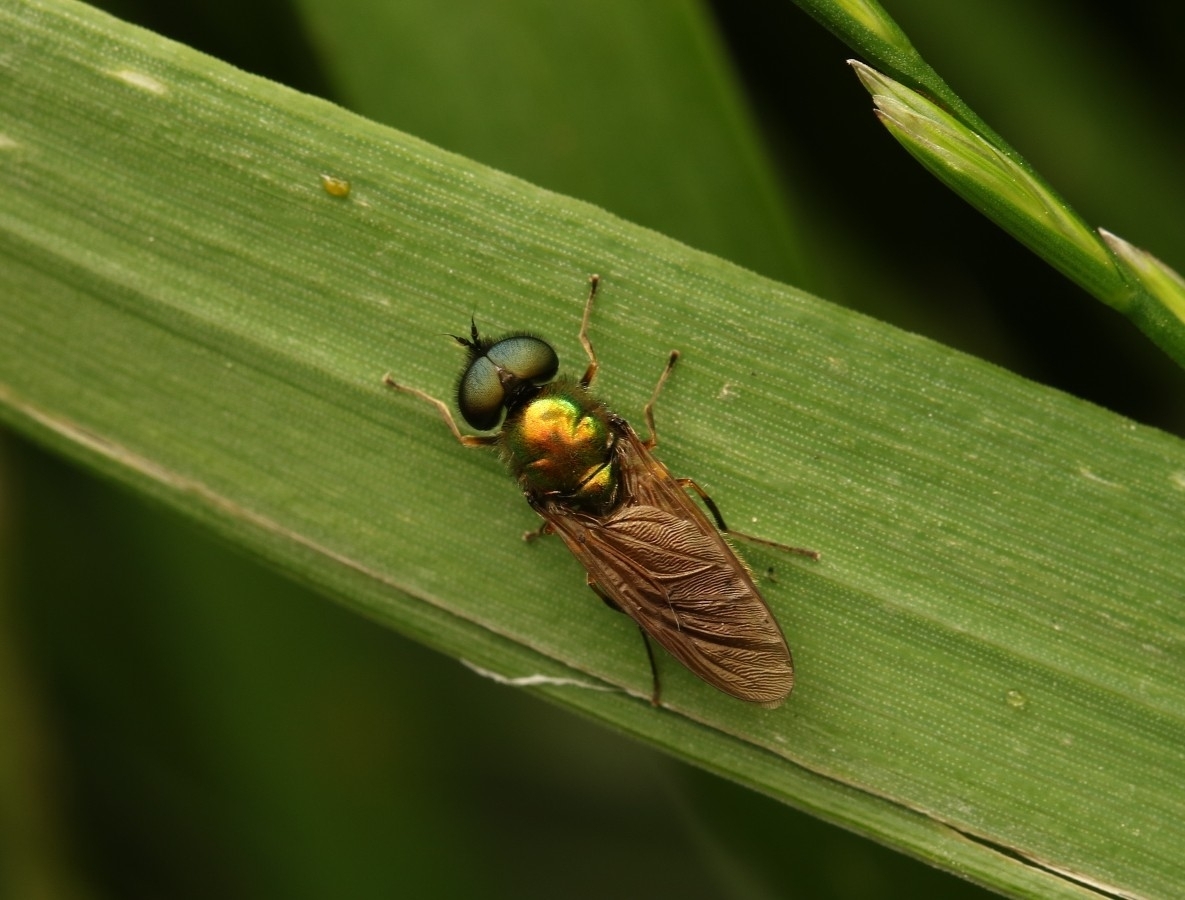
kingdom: Animalia
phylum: Arthropoda
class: Insecta
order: Diptera
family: Stratiomyidae
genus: Chloromyia
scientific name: Chloromyia formosa
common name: Soldier fly
